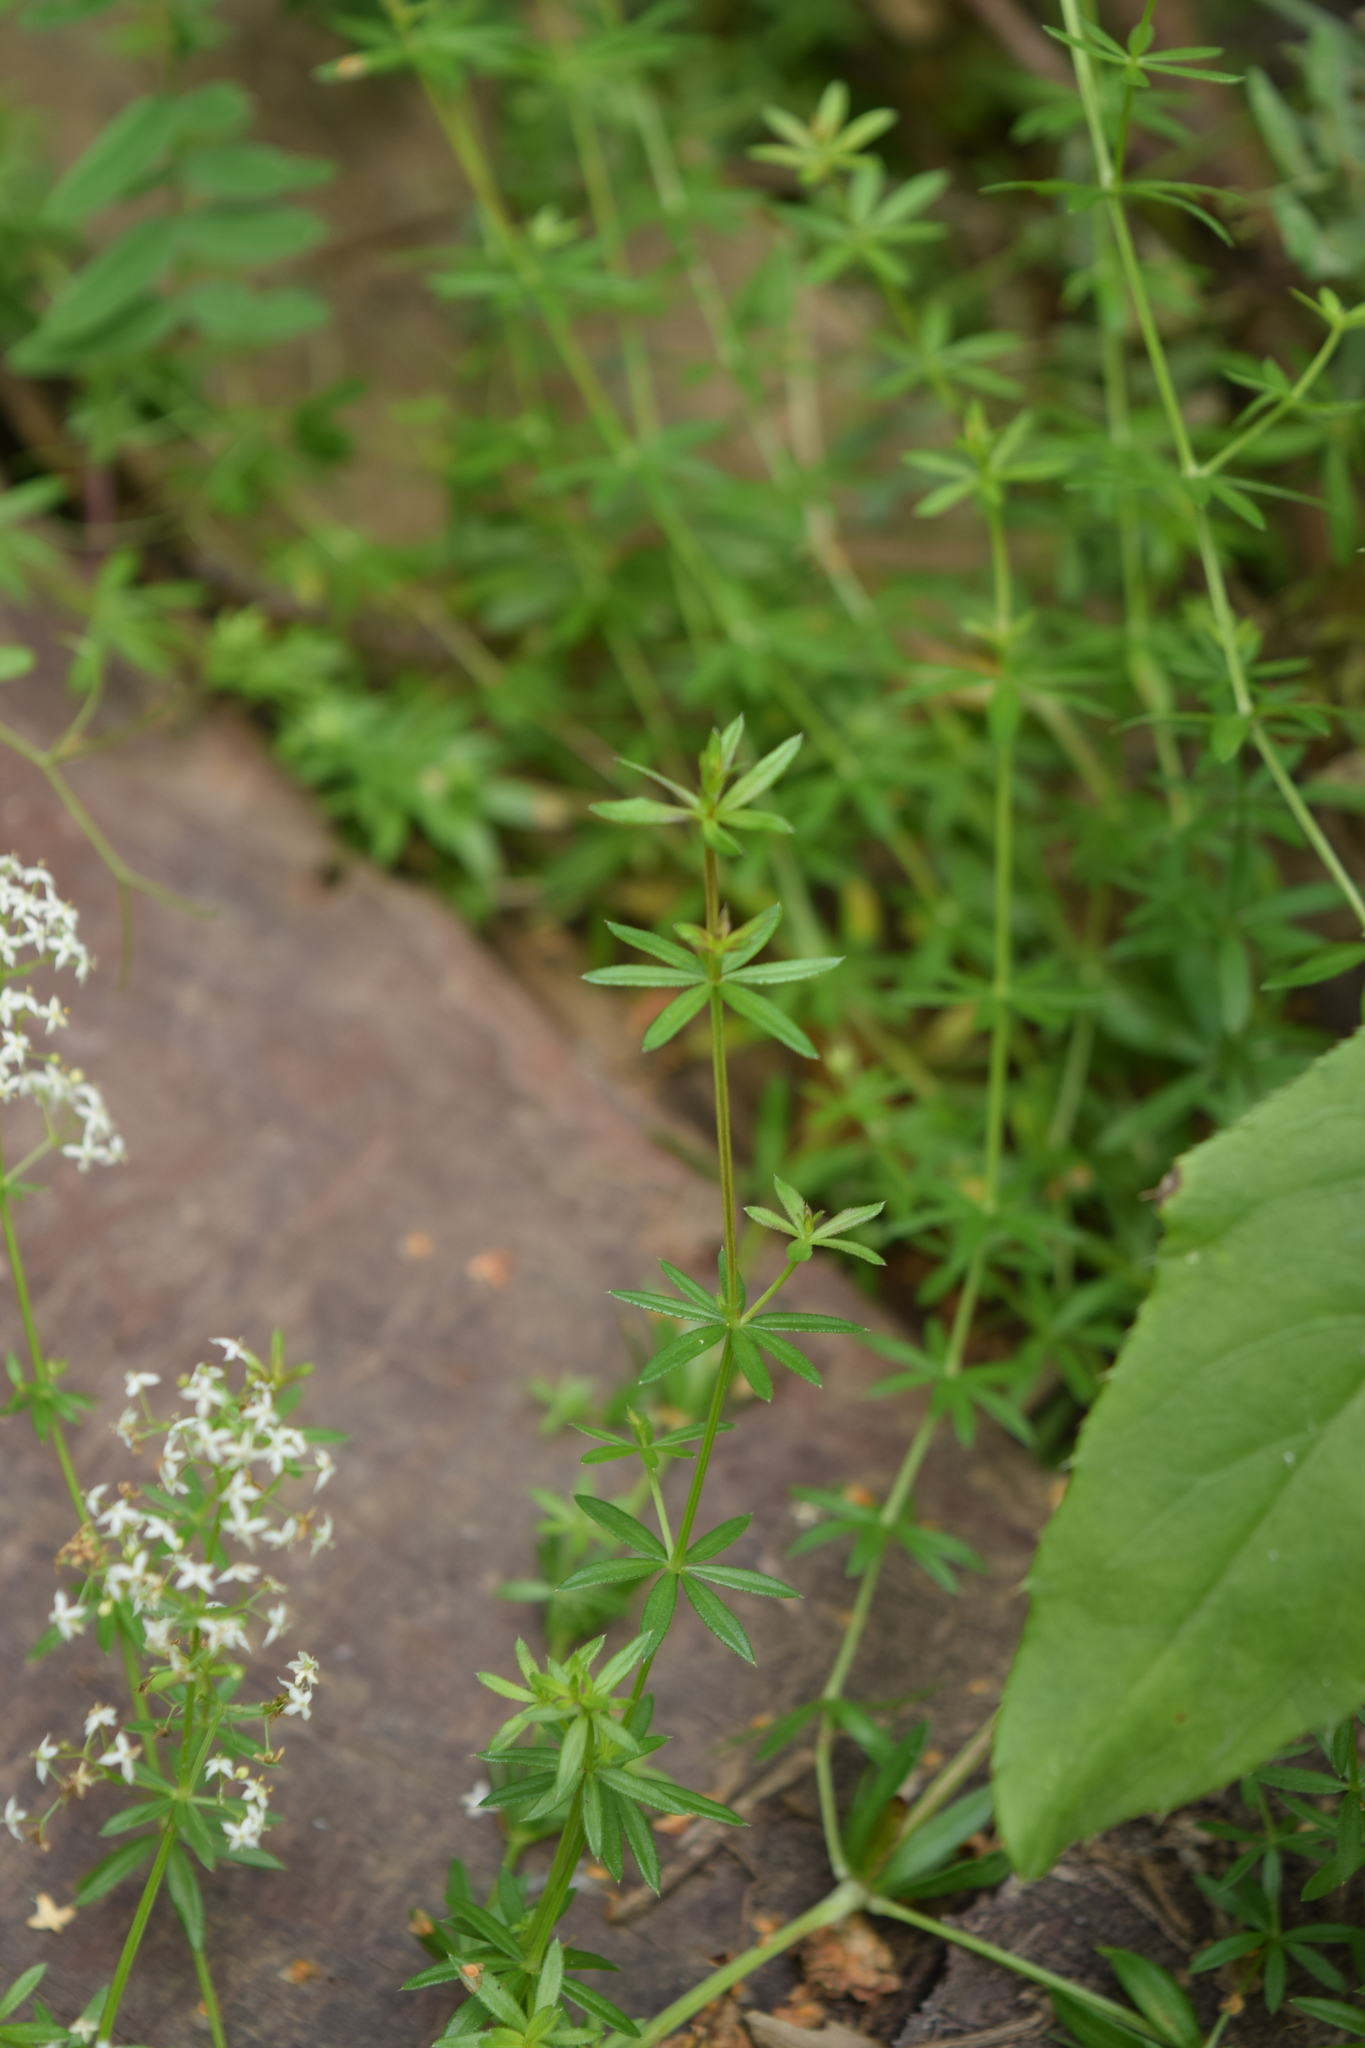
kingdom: Plantae
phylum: Tracheophyta
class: Magnoliopsida
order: Gentianales
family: Rubiaceae
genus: Galium
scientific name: Galium mollugo
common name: Hedge bedstraw
